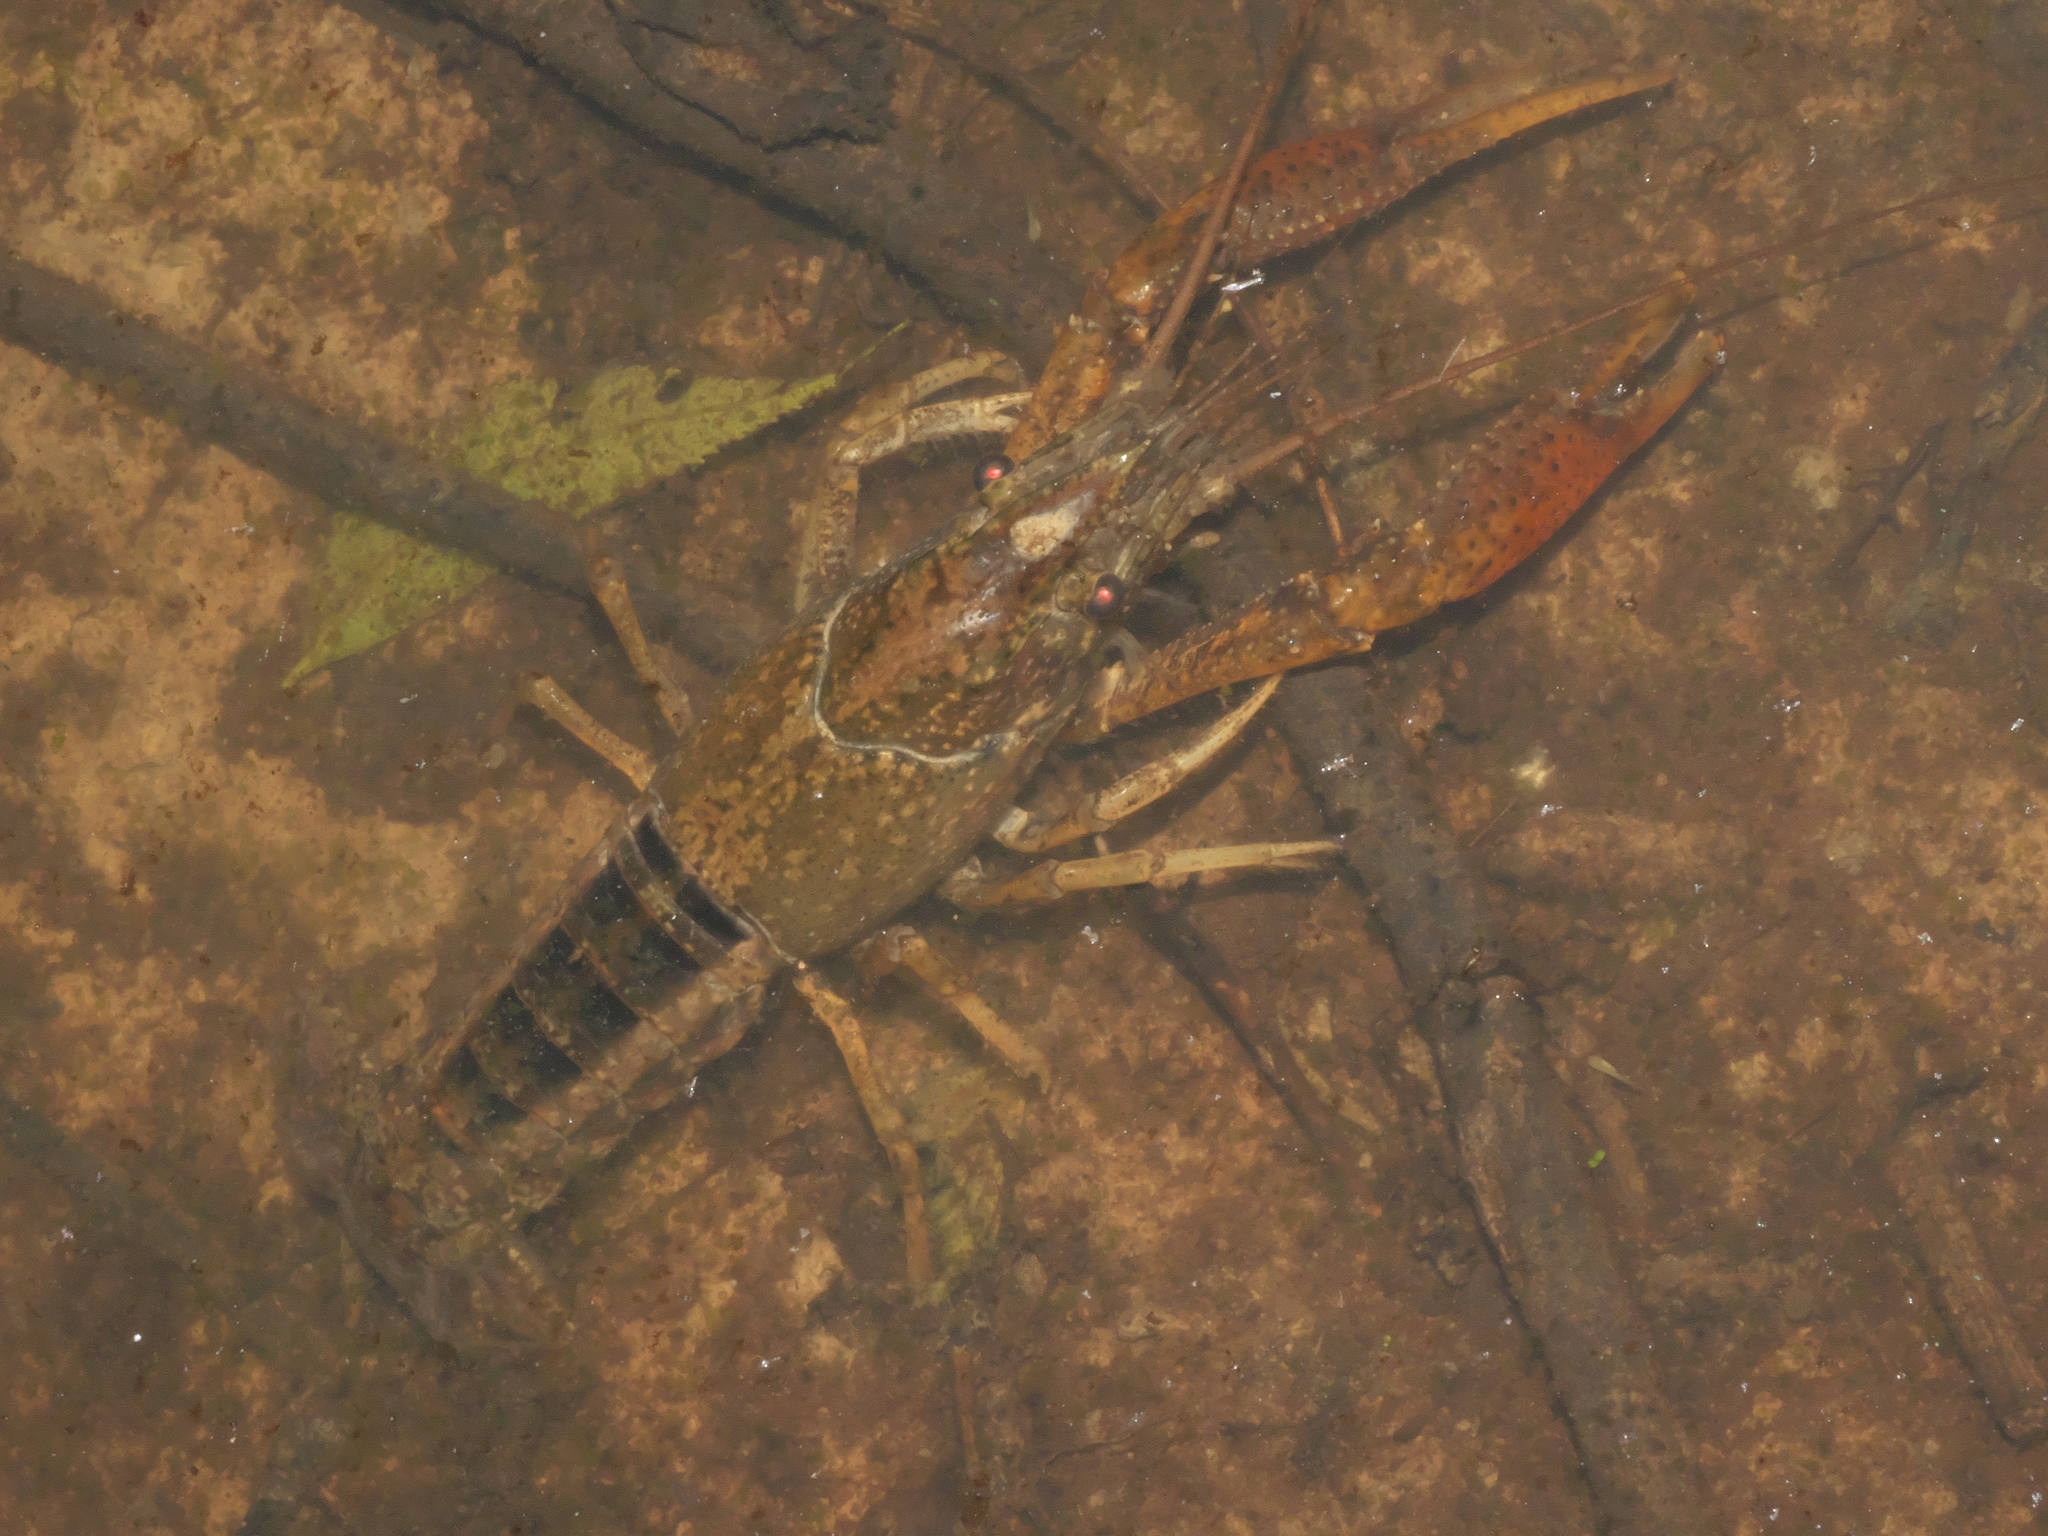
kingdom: Animalia
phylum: Arthropoda
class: Malacostraca
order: Decapoda
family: Cambaridae
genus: Procambarus
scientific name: Procambarus acutus
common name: White river crayfish
